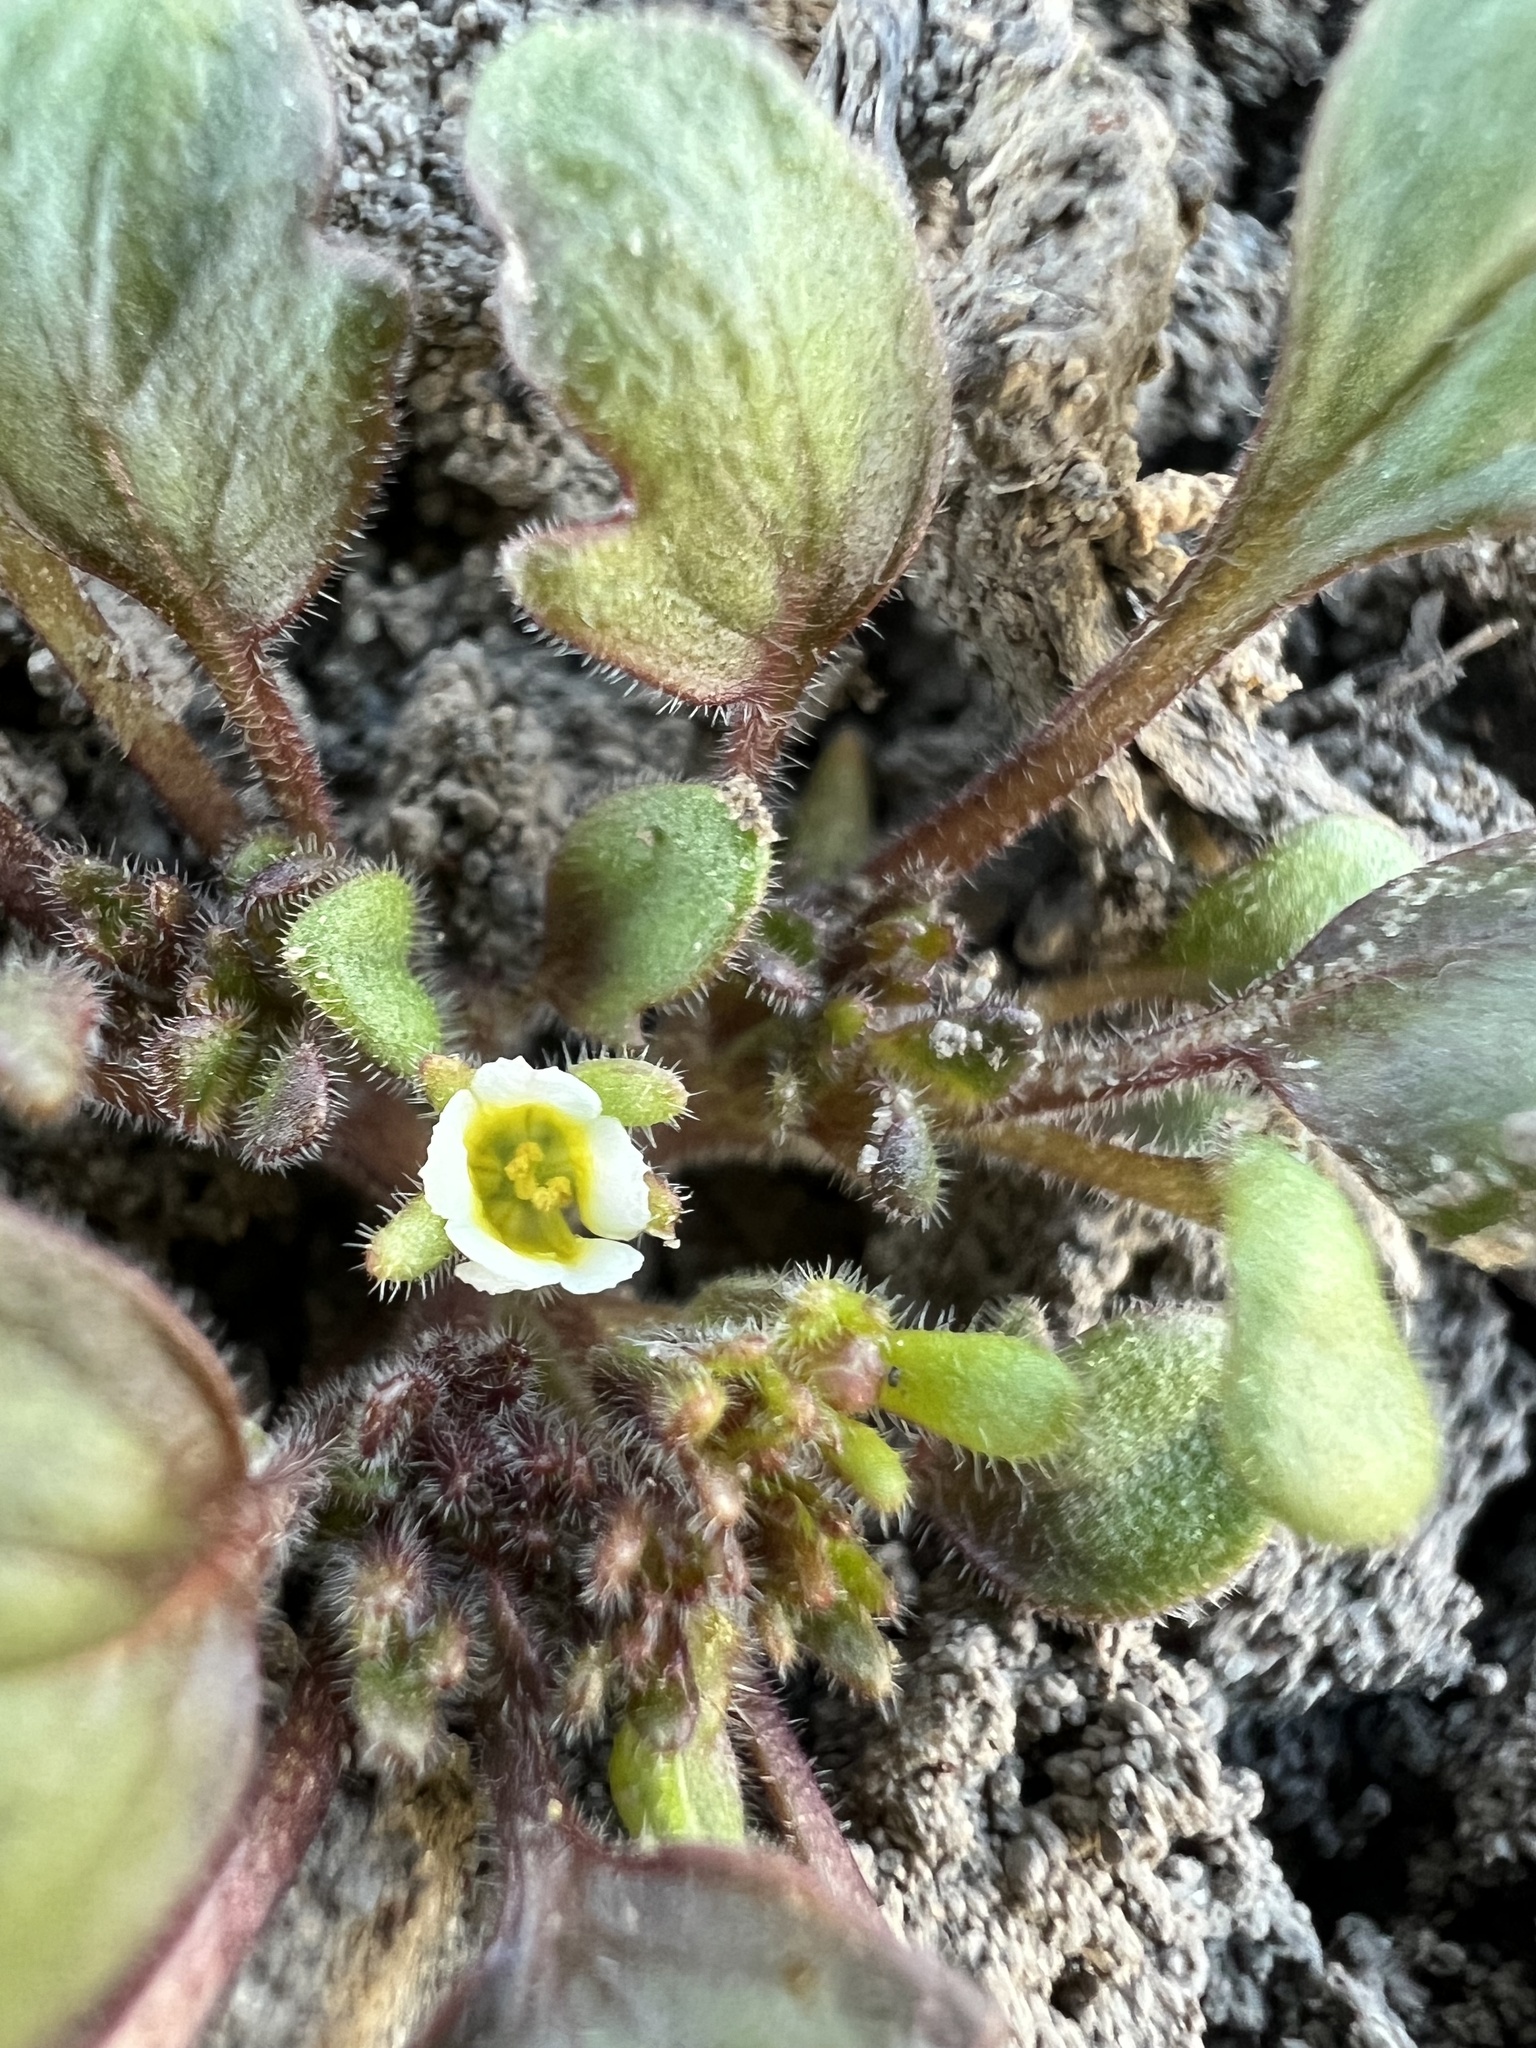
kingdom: Plantae
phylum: Tracheophyta
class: Magnoliopsida
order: Boraginales
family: Hydrophyllaceae
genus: Phacelia
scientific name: Phacelia scopulina
